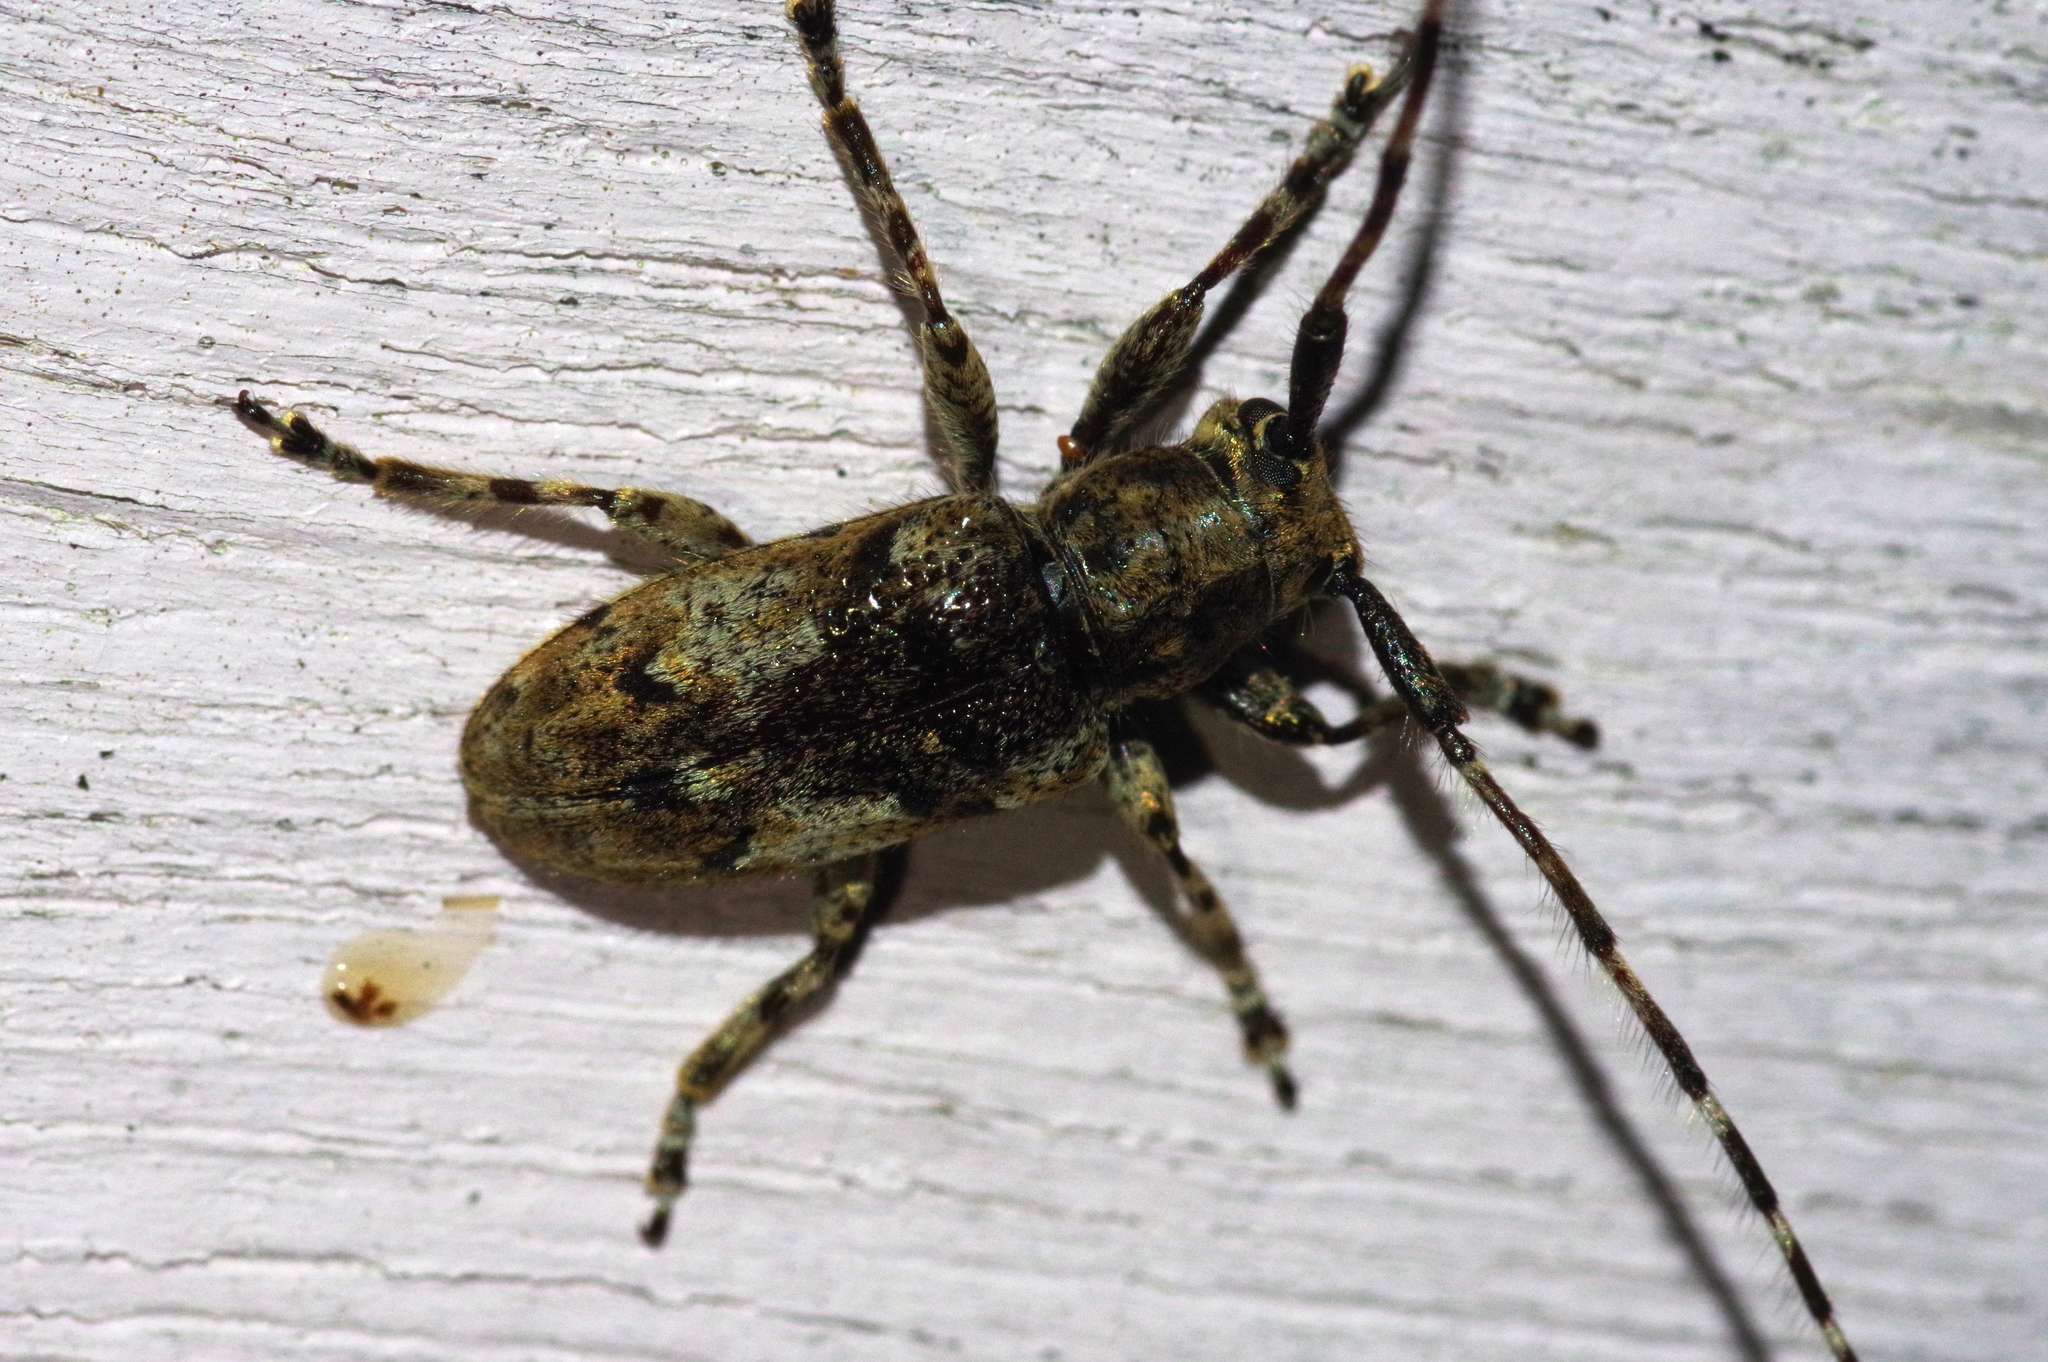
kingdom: Animalia
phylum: Arthropoda
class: Insecta
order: Coleoptera
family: Cerambycidae
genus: Mesosa
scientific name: Mesosa pictipes
